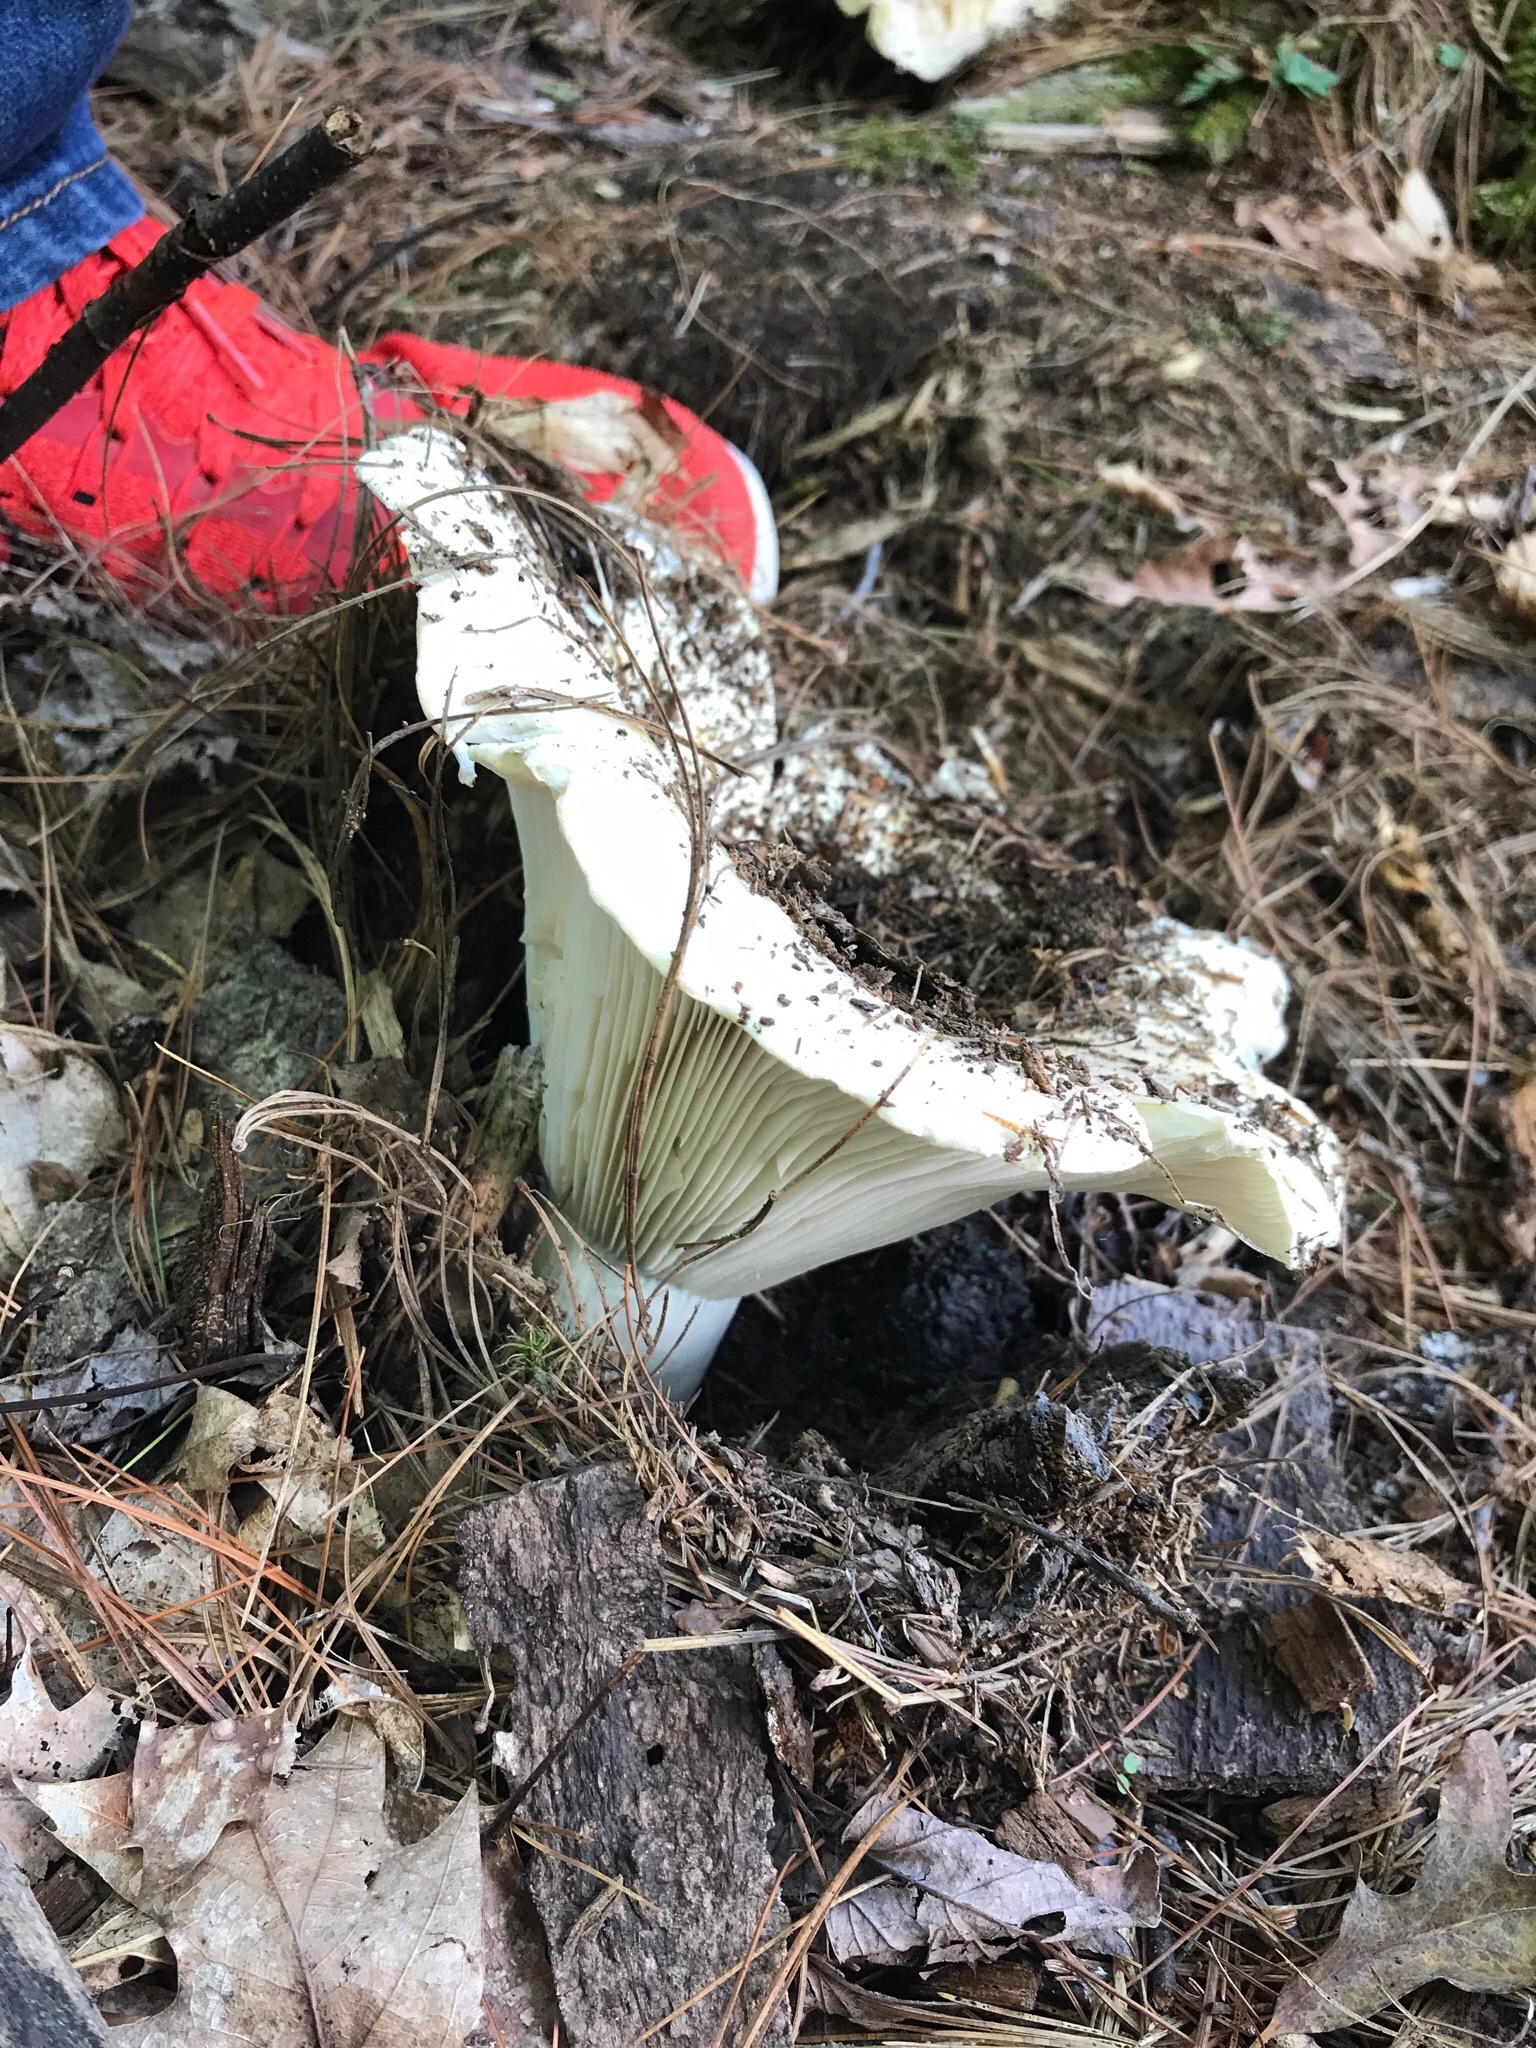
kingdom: Fungi
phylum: Basidiomycota
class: Agaricomycetes
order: Russulales
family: Russulaceae
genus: Russula
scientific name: Russula brevipes
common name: Short-stemmed russula
